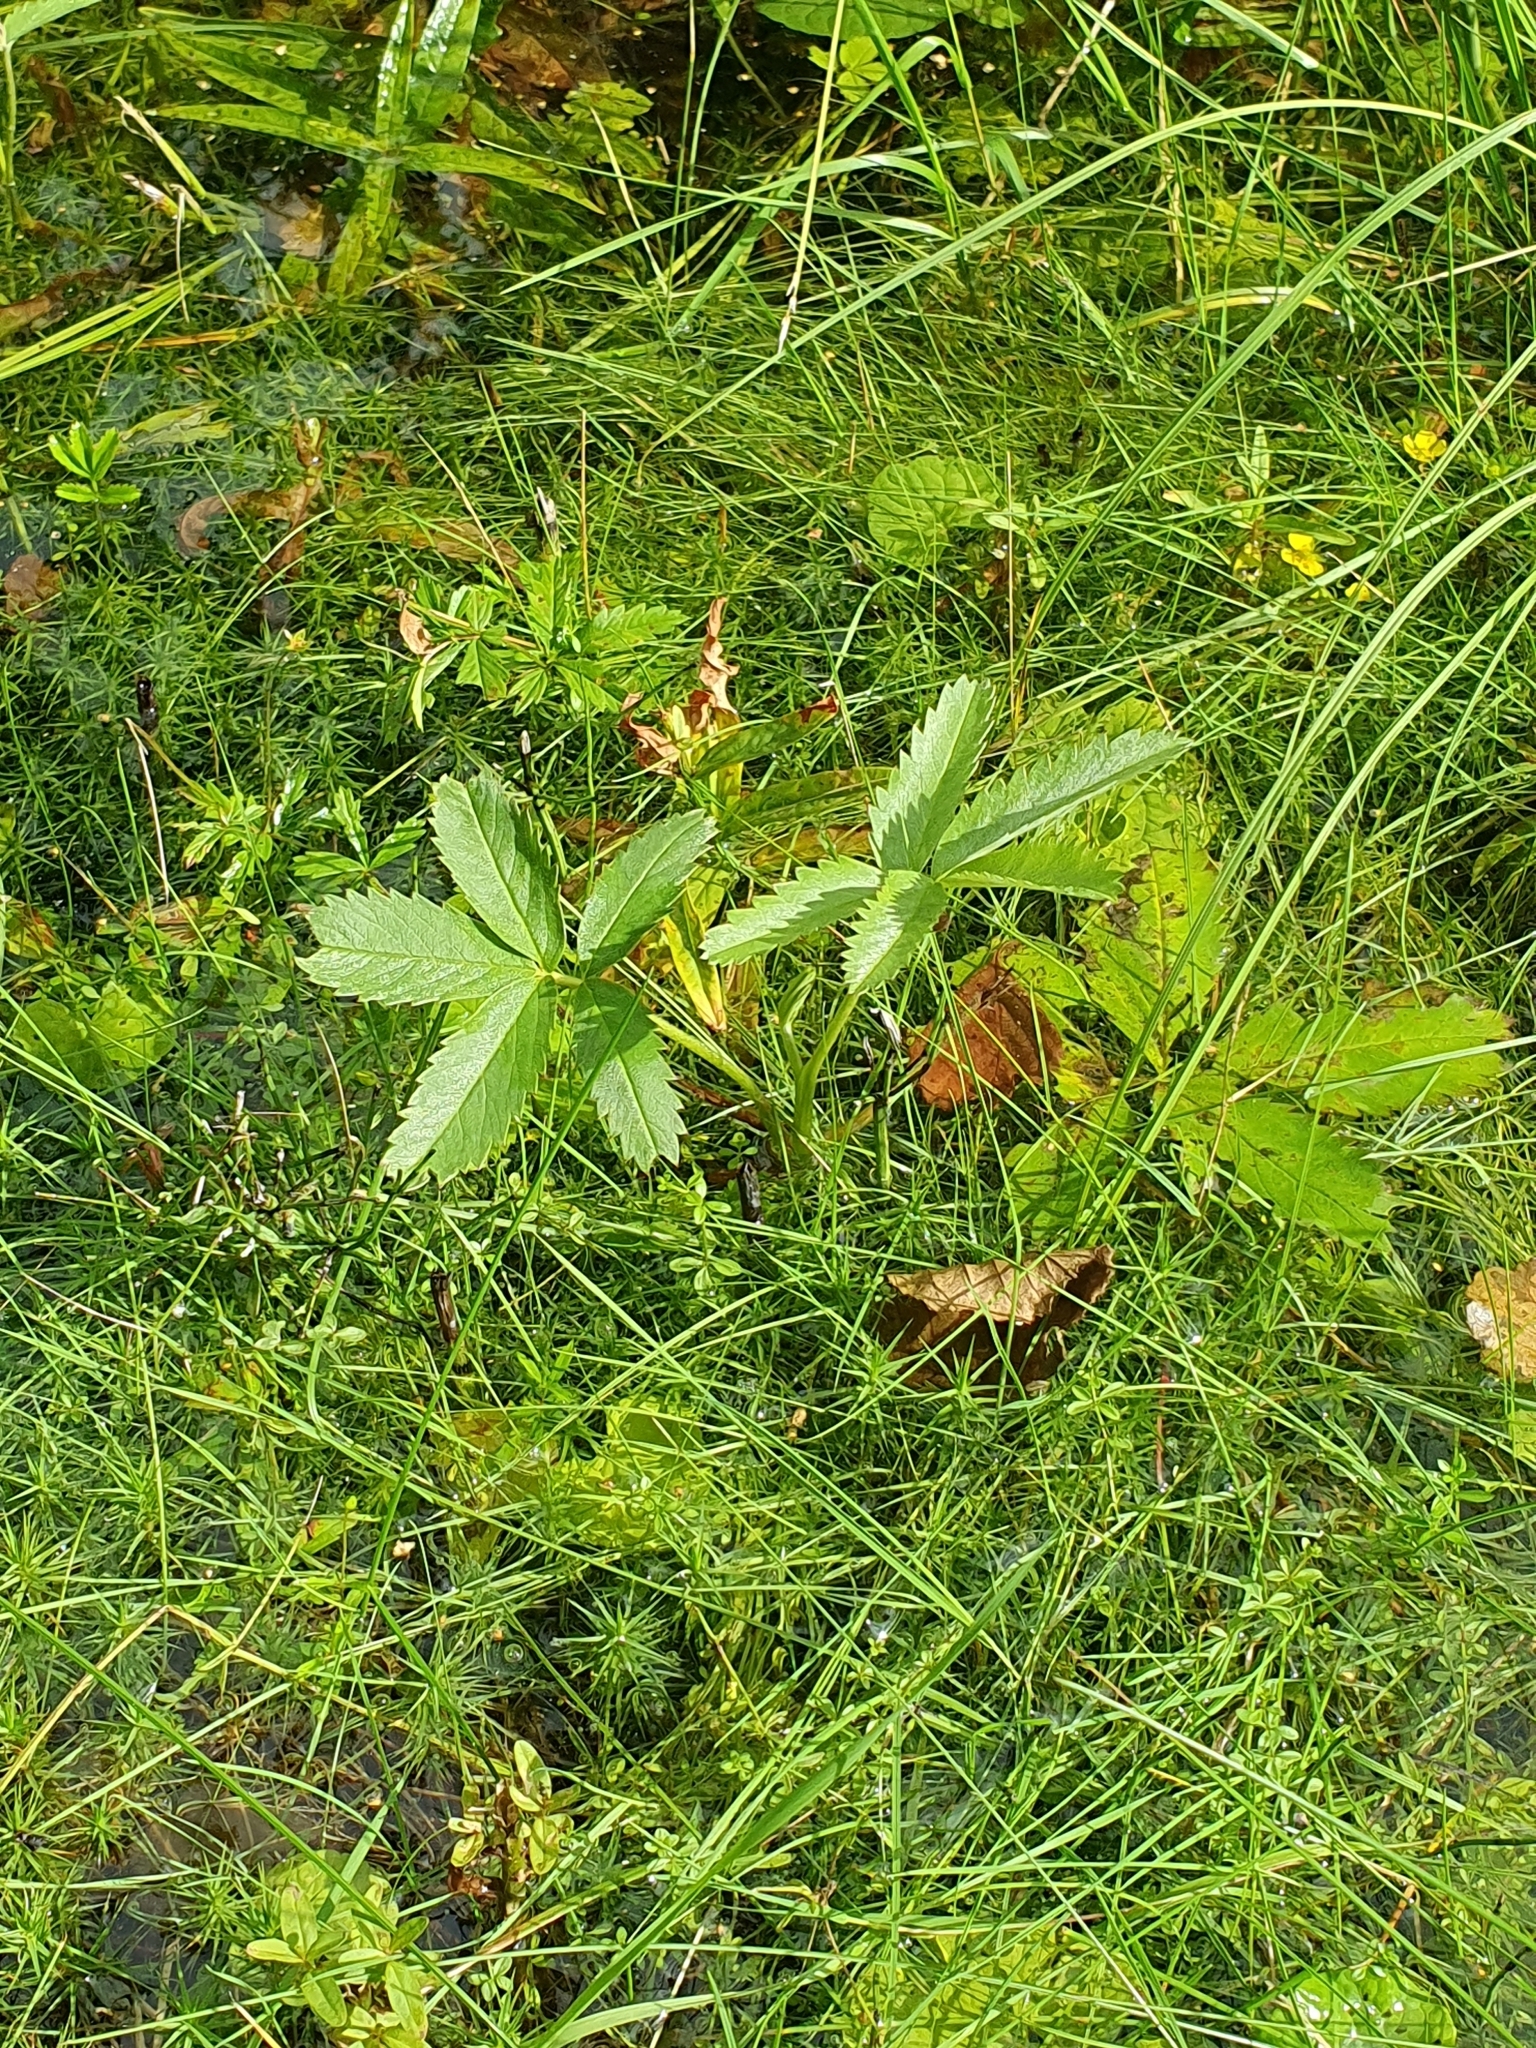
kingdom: Plantae
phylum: Tracheophyta
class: Magnoliopsida
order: Rosales
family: Rosaceae
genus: Comarum
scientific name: Comarum palustre
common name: Marsh cinquefoil
